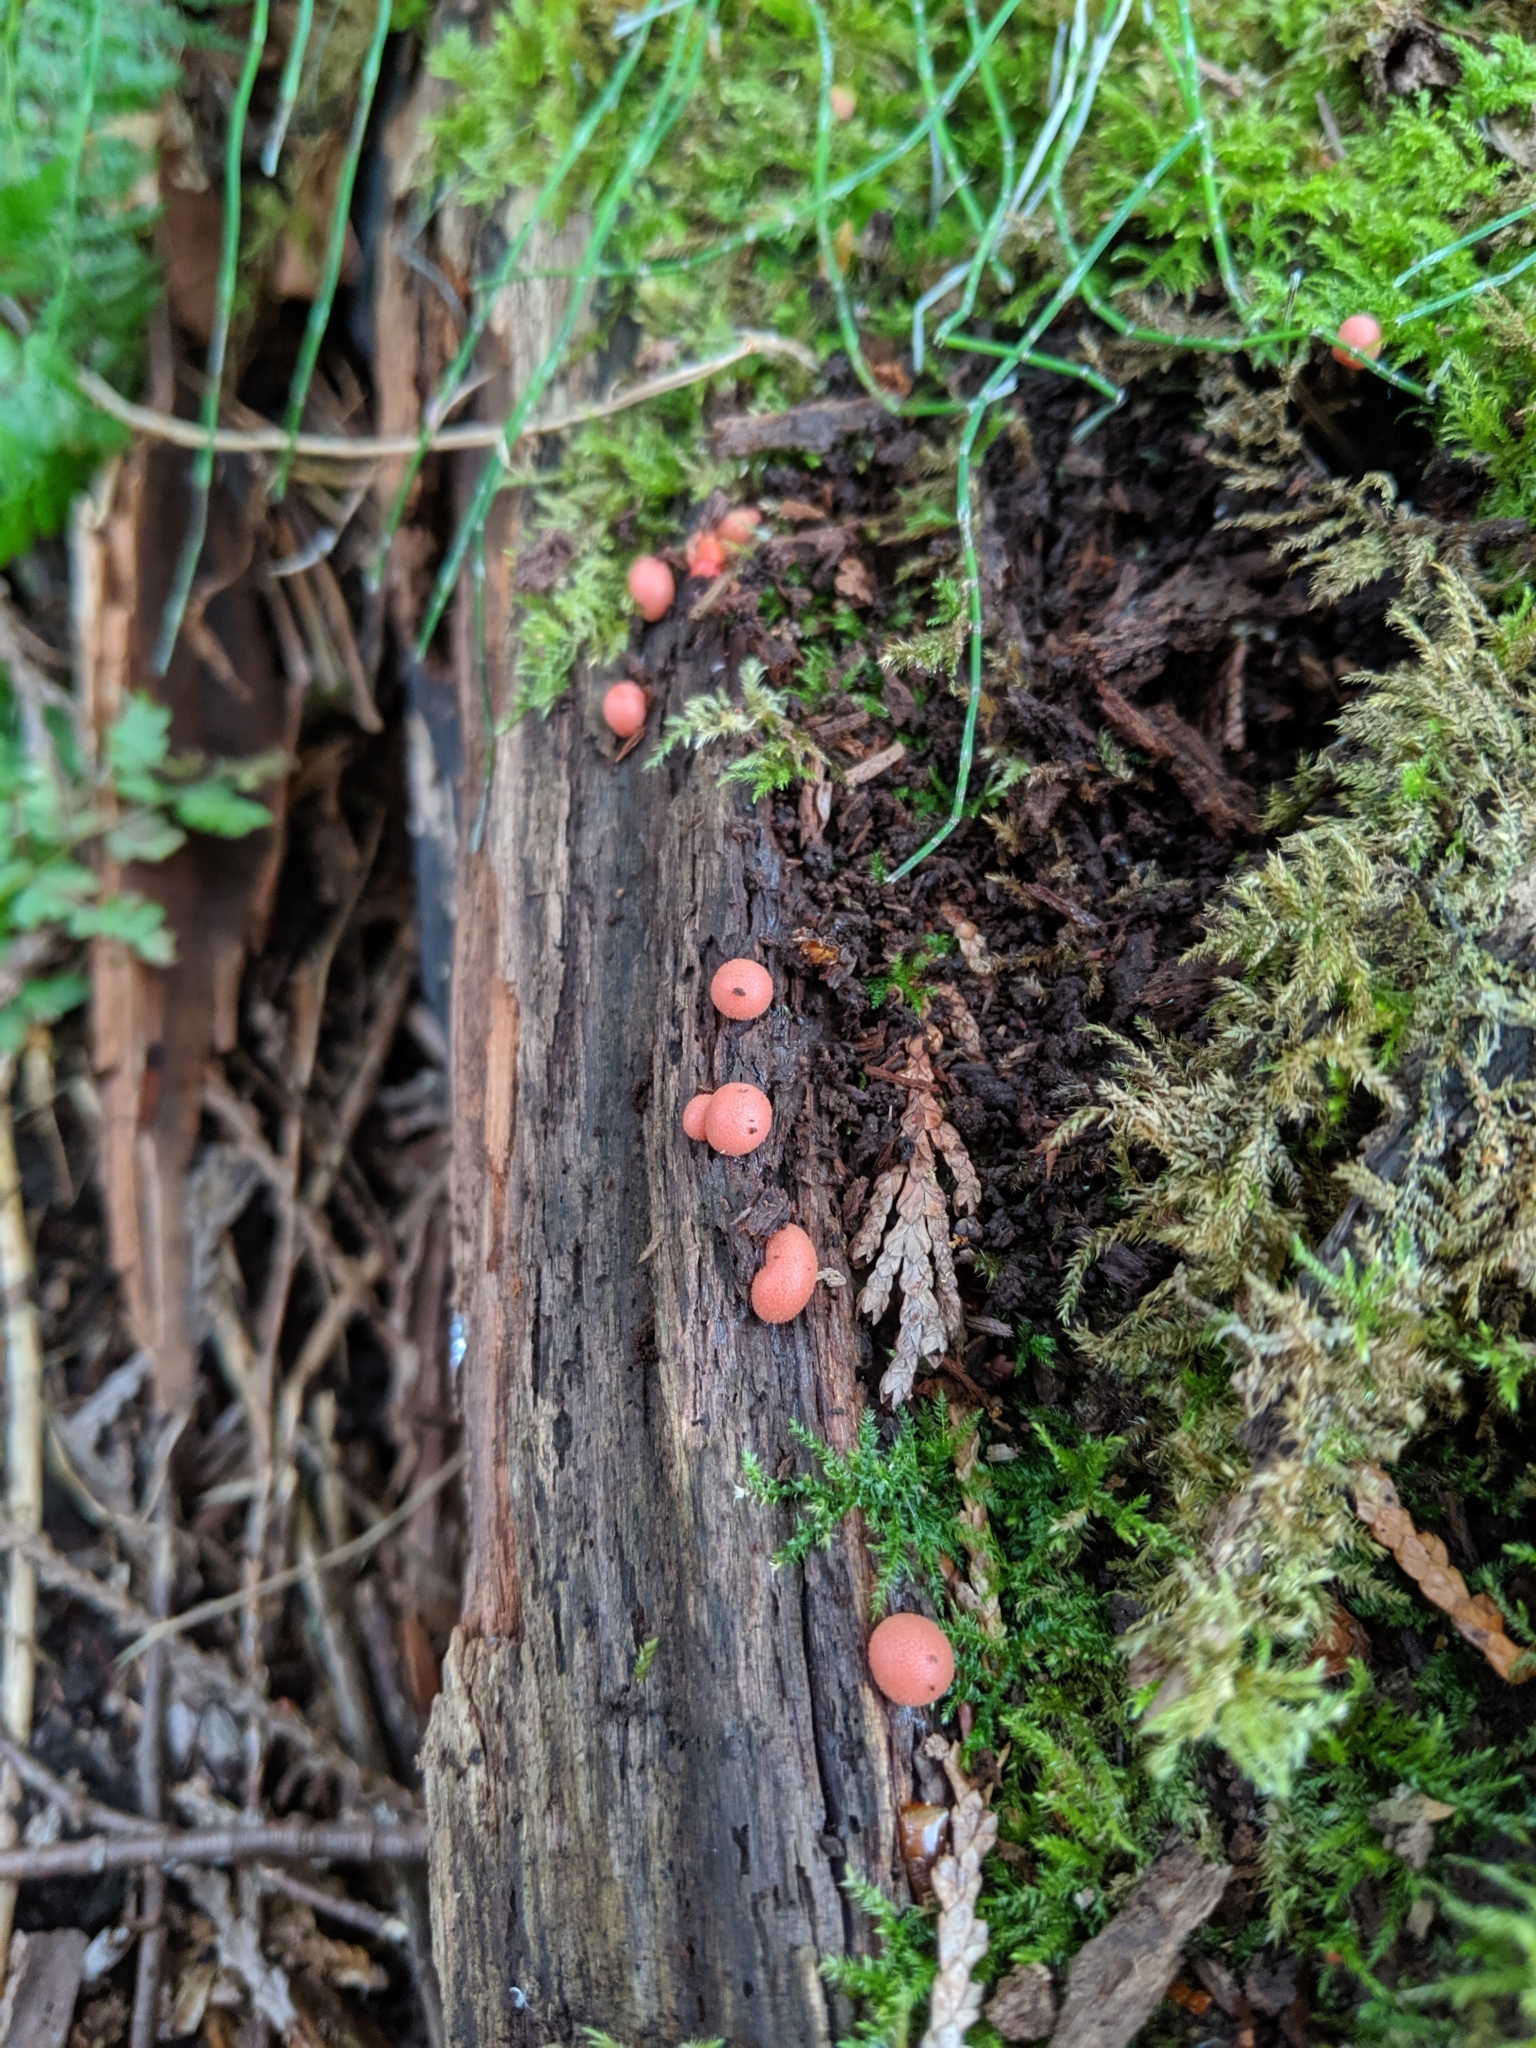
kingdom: Protozoa
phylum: Mycetozoa
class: Myxomycetes
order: Cribrariales
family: Tubiferaceae
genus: Lycogala
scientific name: Lycogala epidendrum
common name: Wolf's milk
